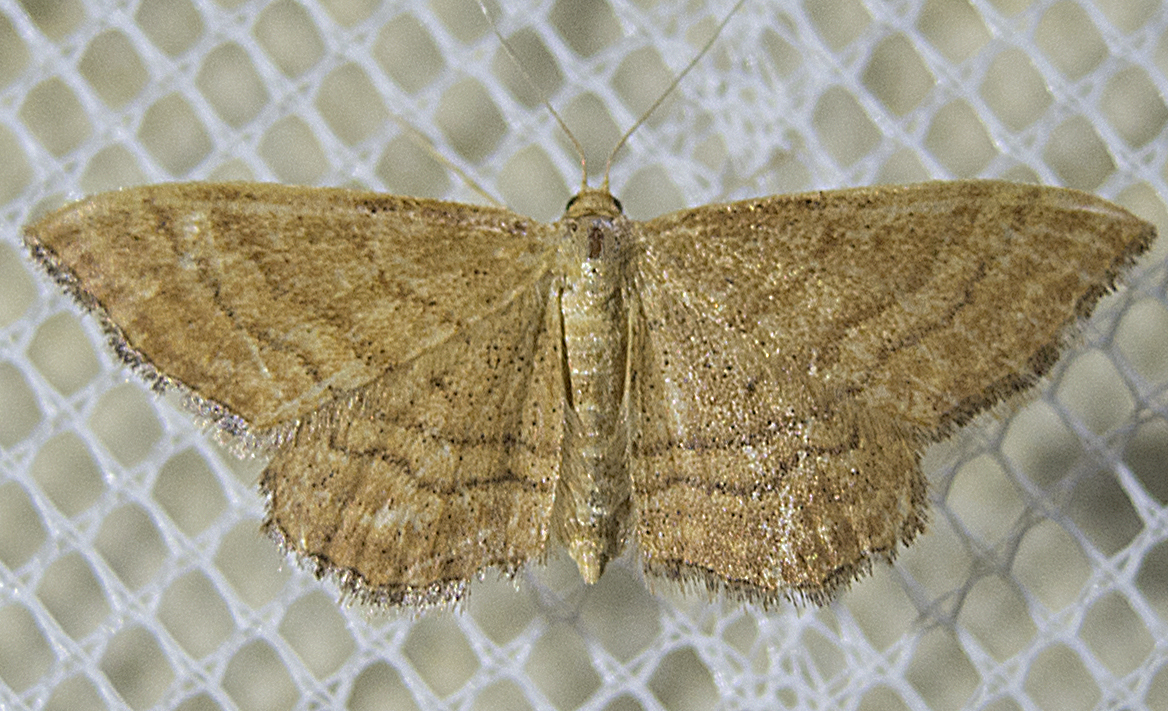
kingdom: Animalia
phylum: Arthropoda
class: Insecta
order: Lepidoptera
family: Geometridae
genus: Idaea
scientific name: Idaea ochrata
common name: Bright wave
